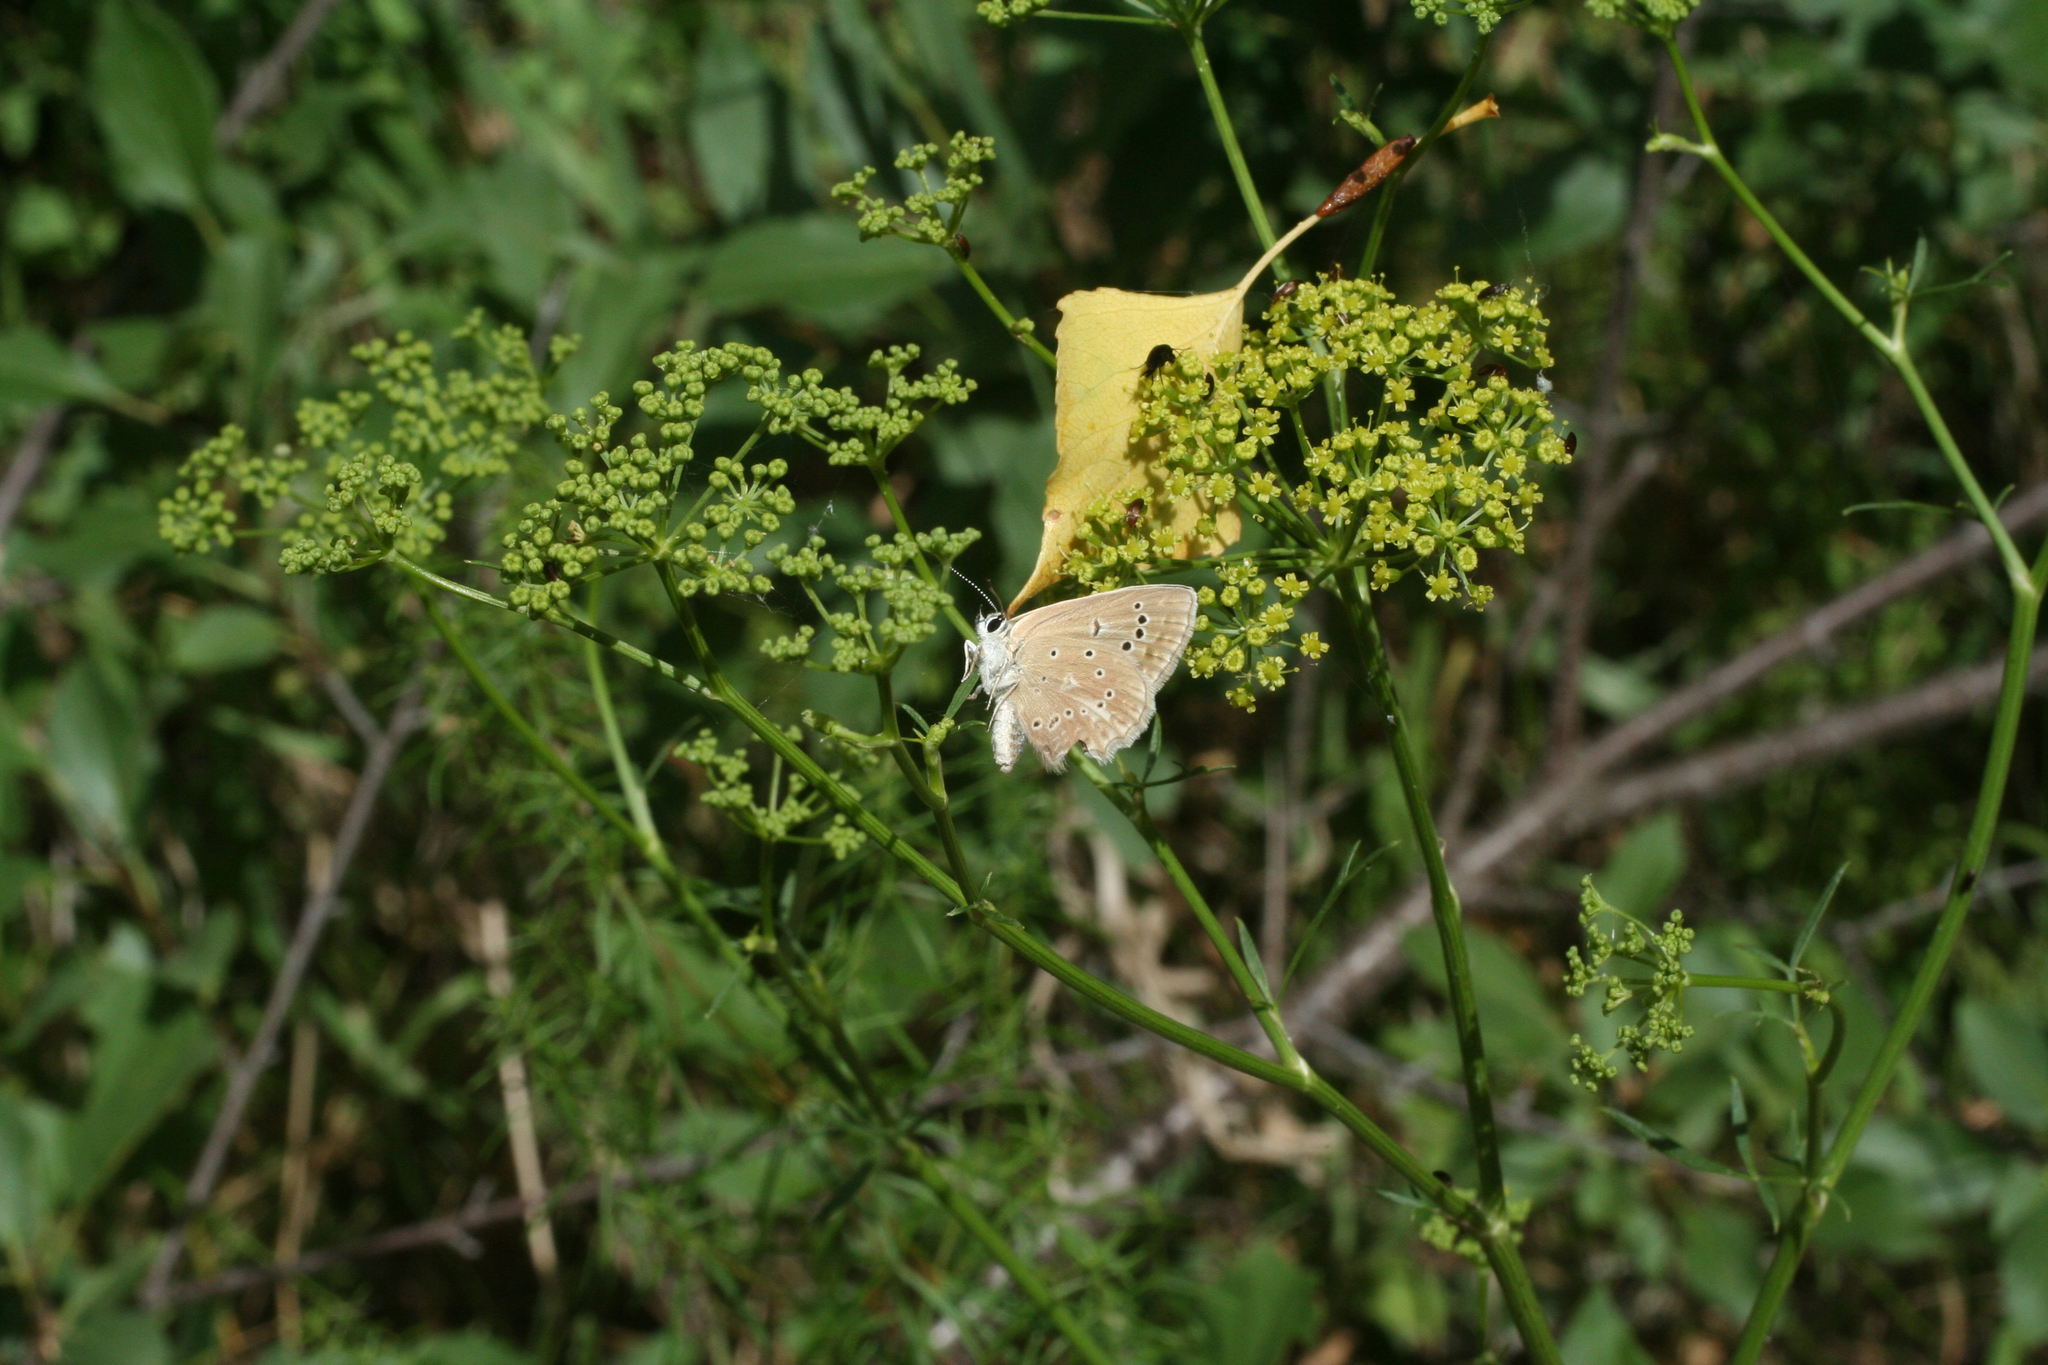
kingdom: Animalia
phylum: Arthropoda
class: Insecta
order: Lepidoptera
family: Lycaenidae
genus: Polyommatus
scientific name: Polyommatus daphnis
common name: Meleager's blue
